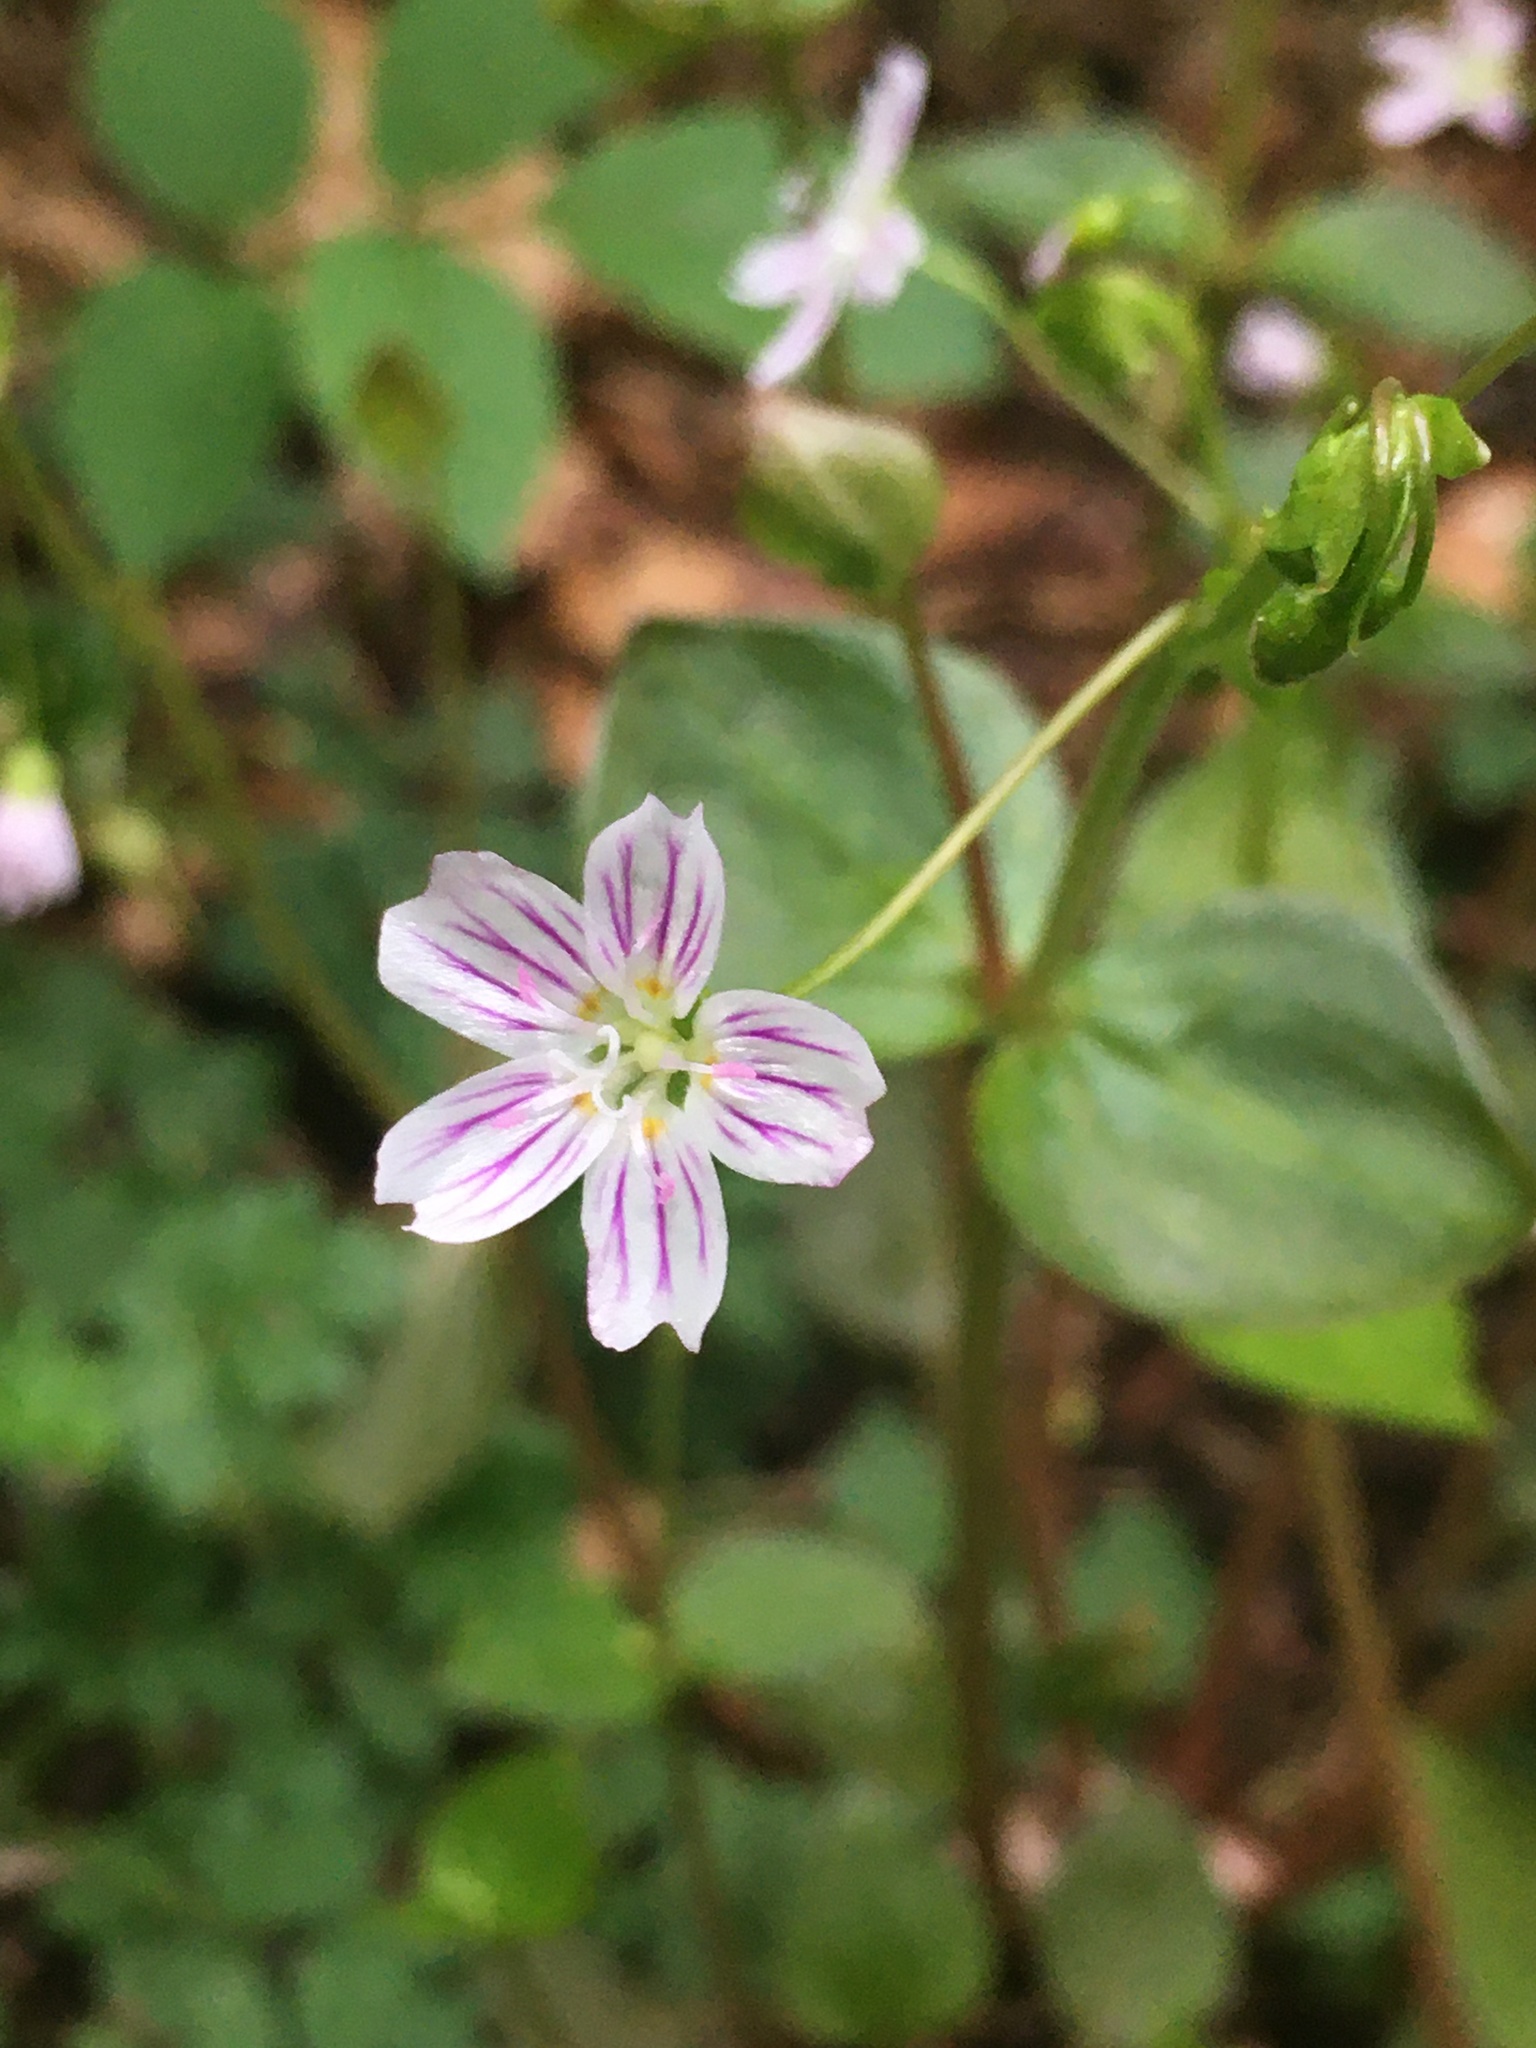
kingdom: Plantae
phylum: Tracheophyta
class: Magnoliopsida
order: Caryophyllales
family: Montiaceae
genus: Claytonia
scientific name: Claytonia sibirica
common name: Pink purslane
